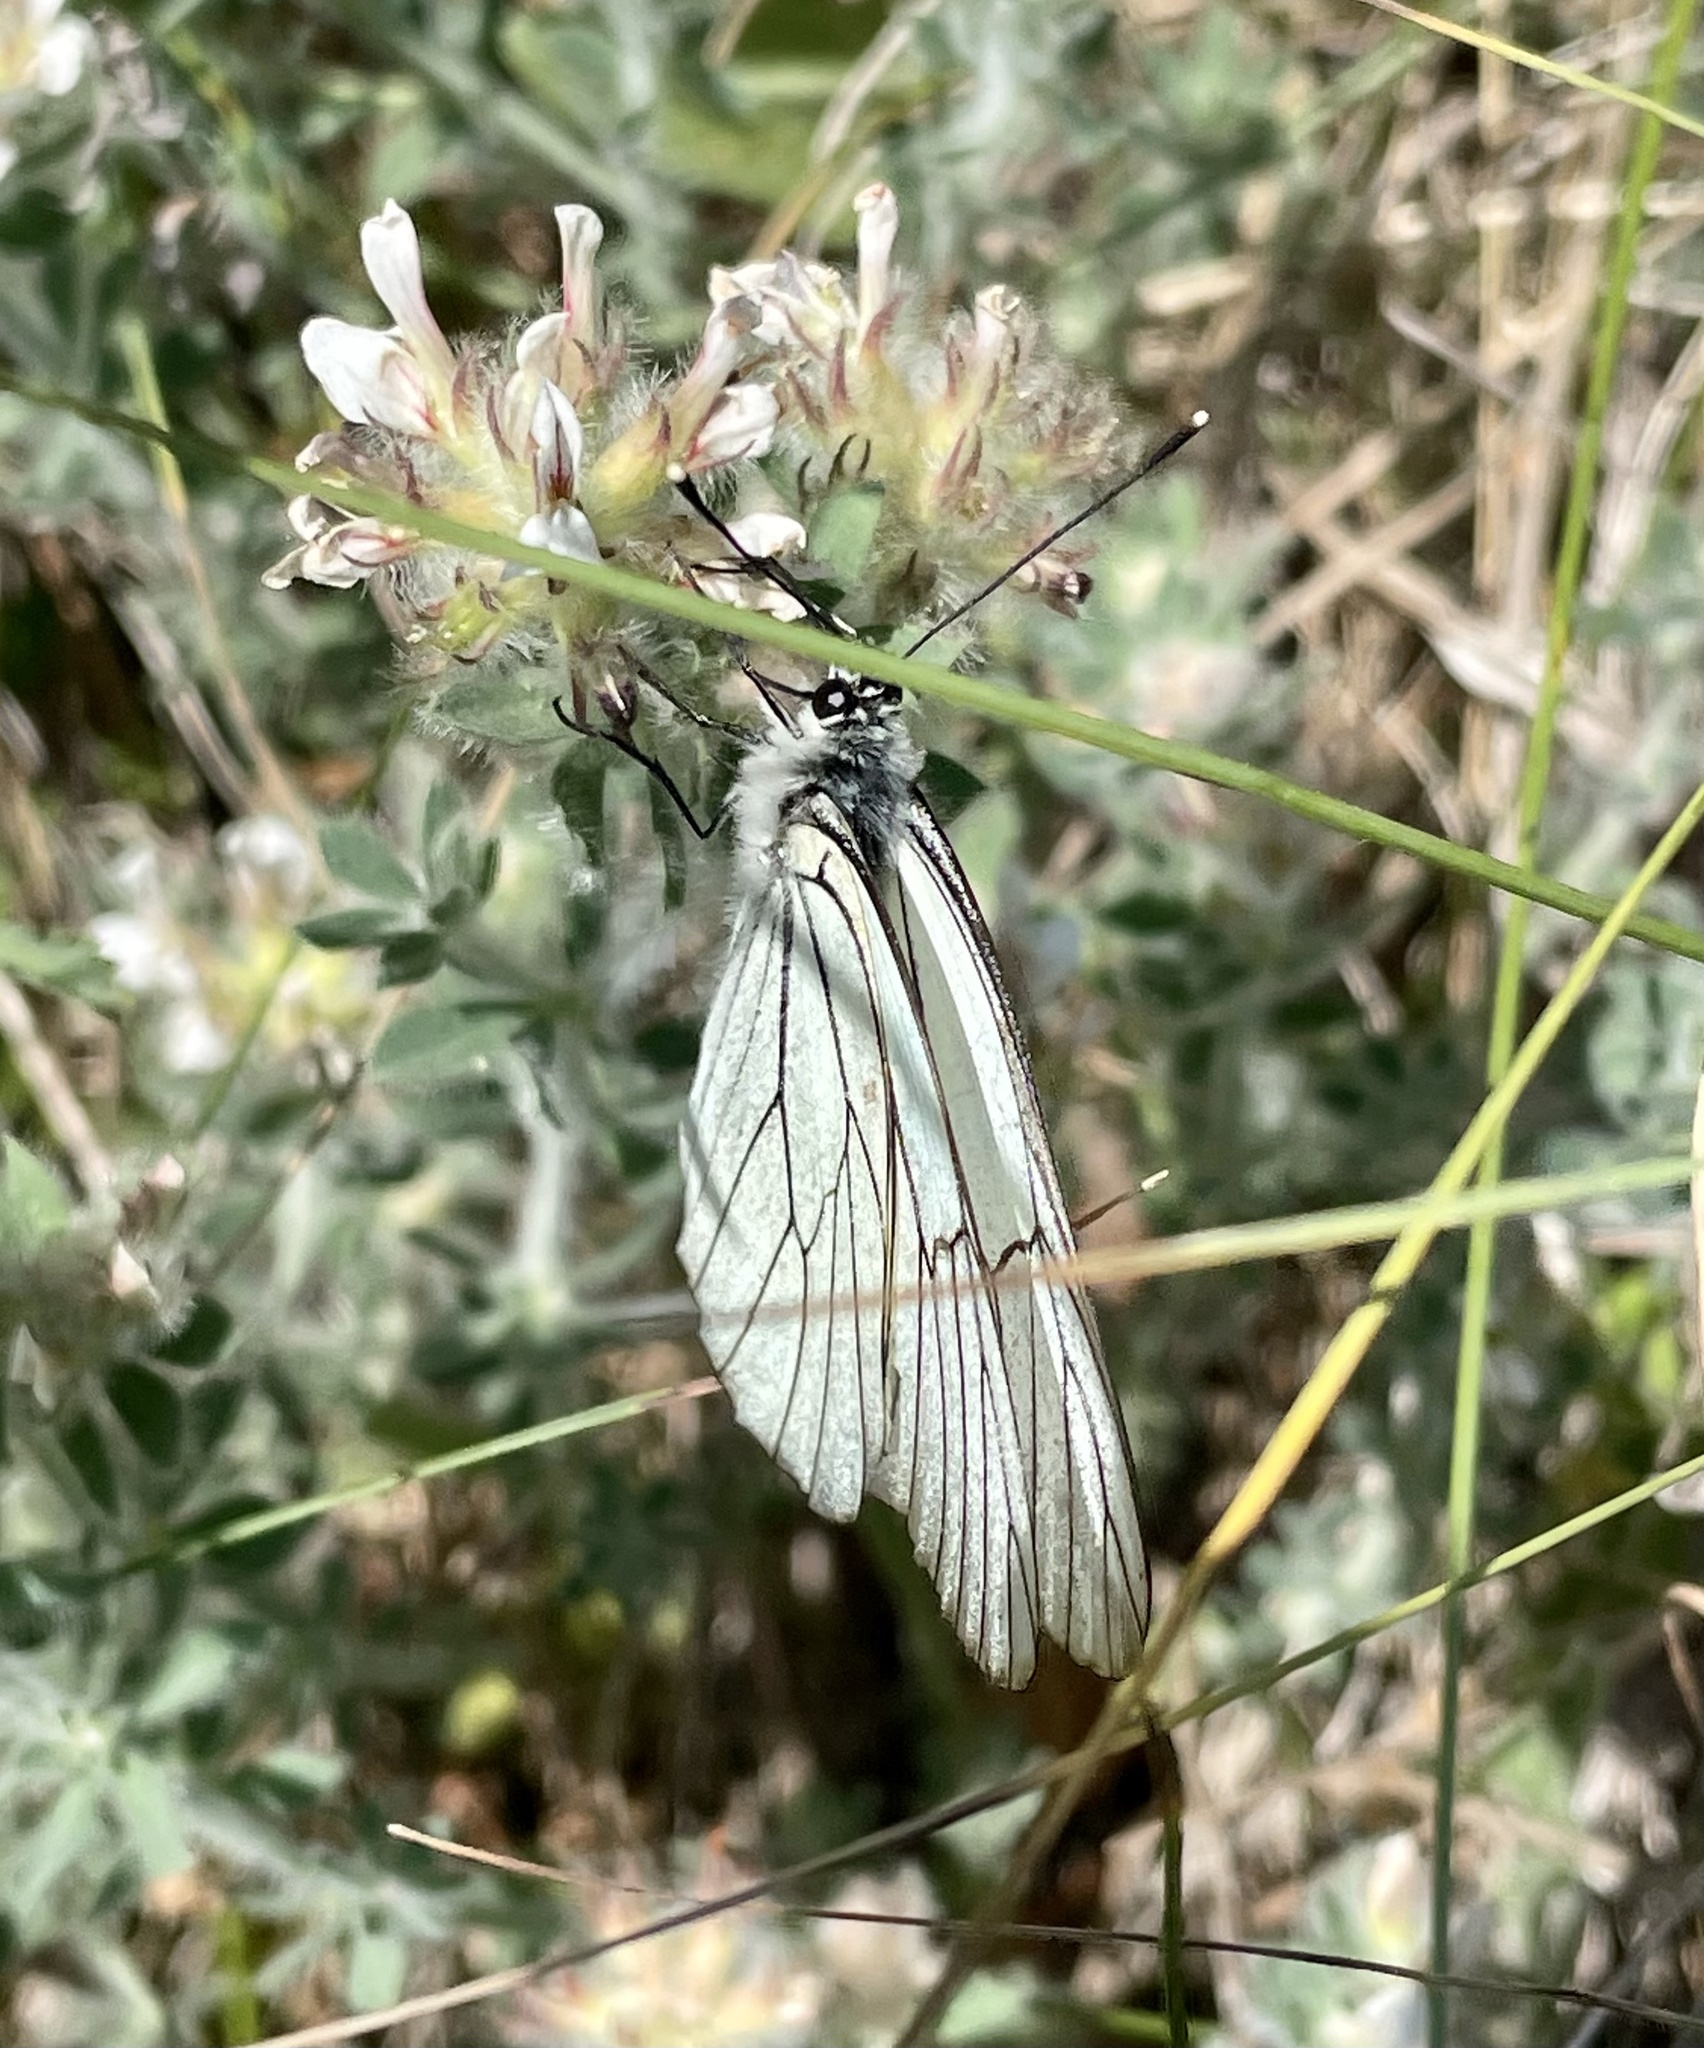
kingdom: Animalia
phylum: Arthropoda
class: Insecta
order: Lepidoptera
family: Pieridae
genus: Aporia
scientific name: Aporia crataegi
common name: Black-veined white
